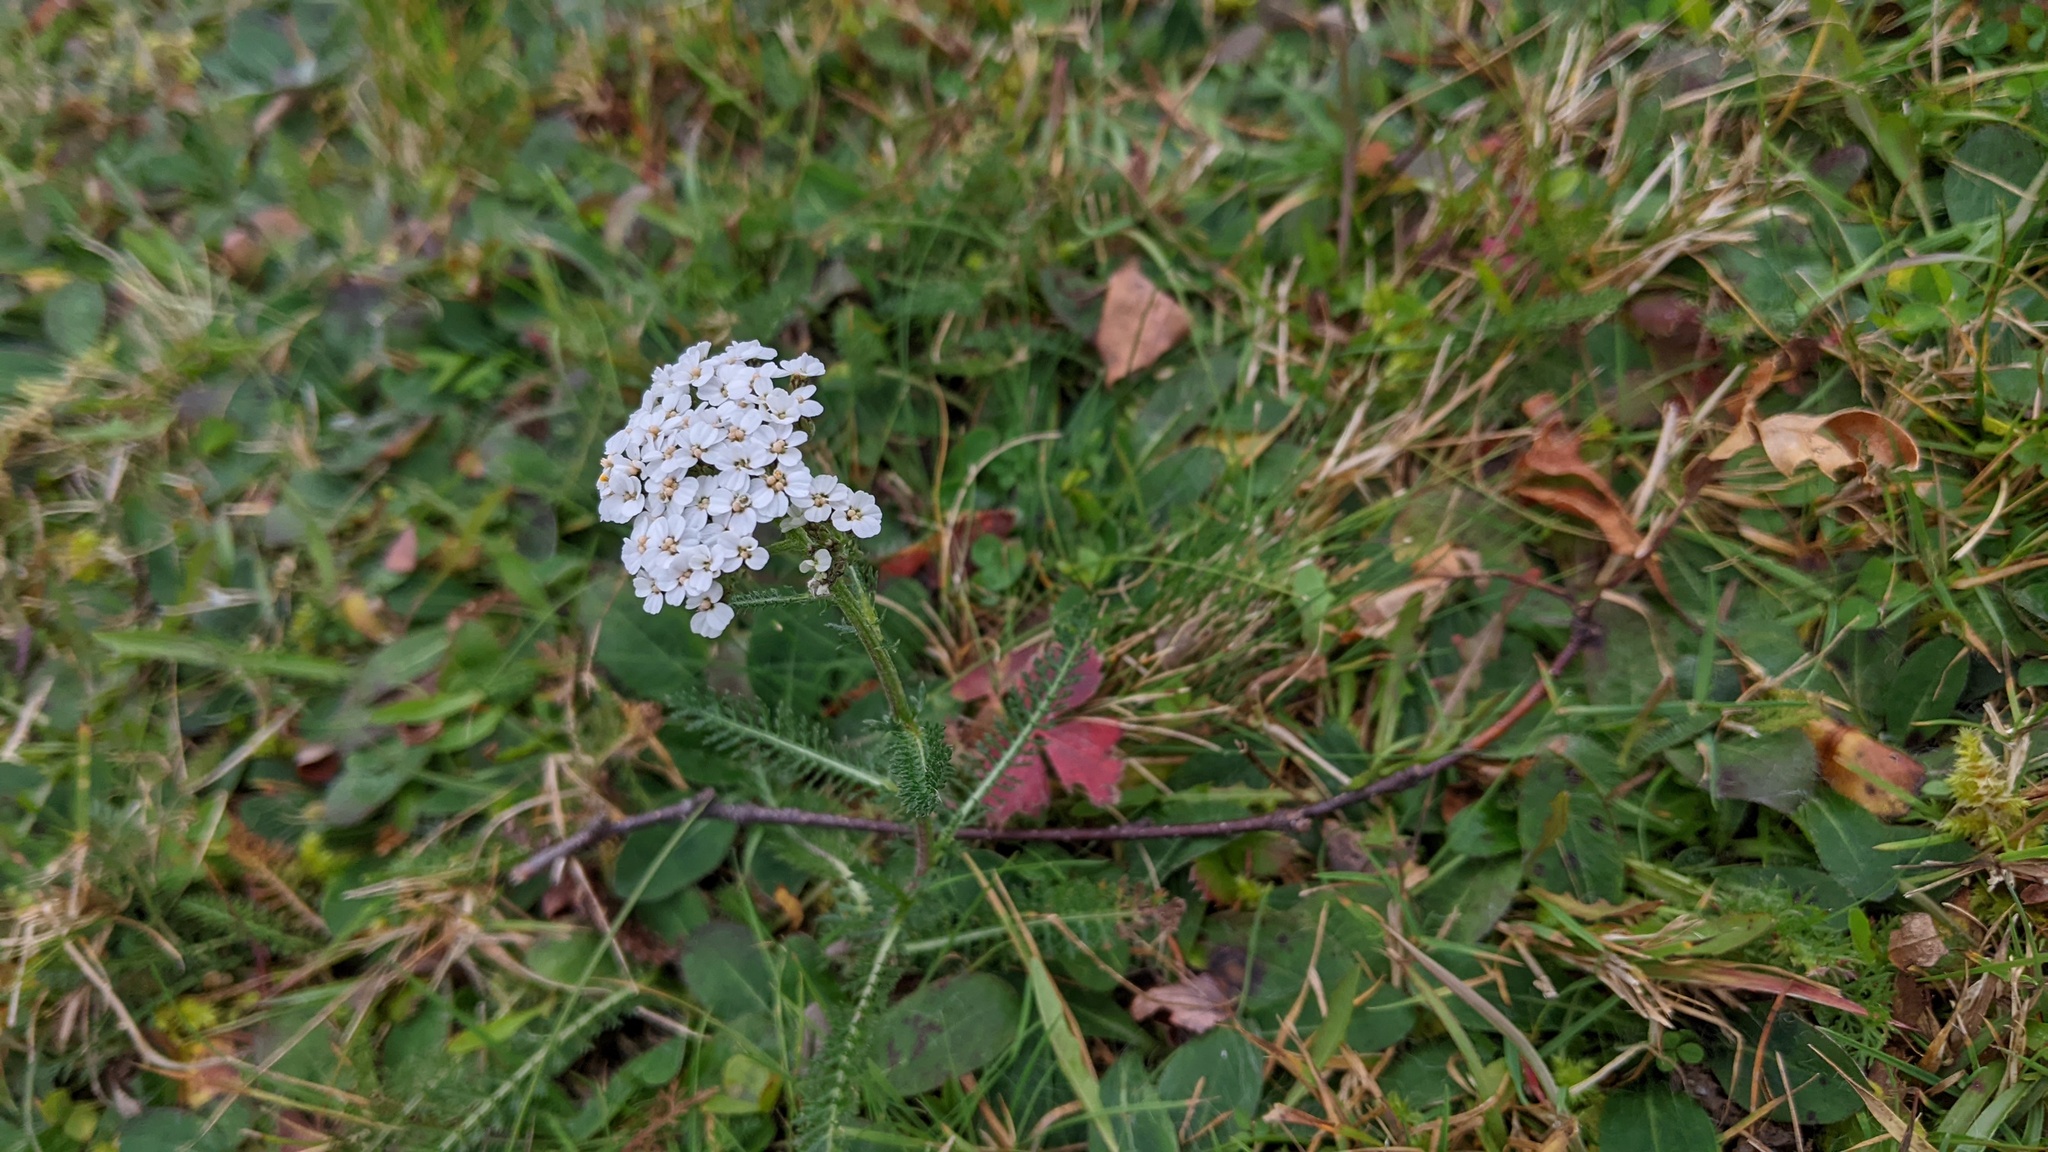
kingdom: Plantae
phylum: Tracheophyta
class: Magnoliopsida
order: Asterales
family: Asteraceae
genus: Achillea
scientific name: Achillea millefolium
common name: Yarrow
